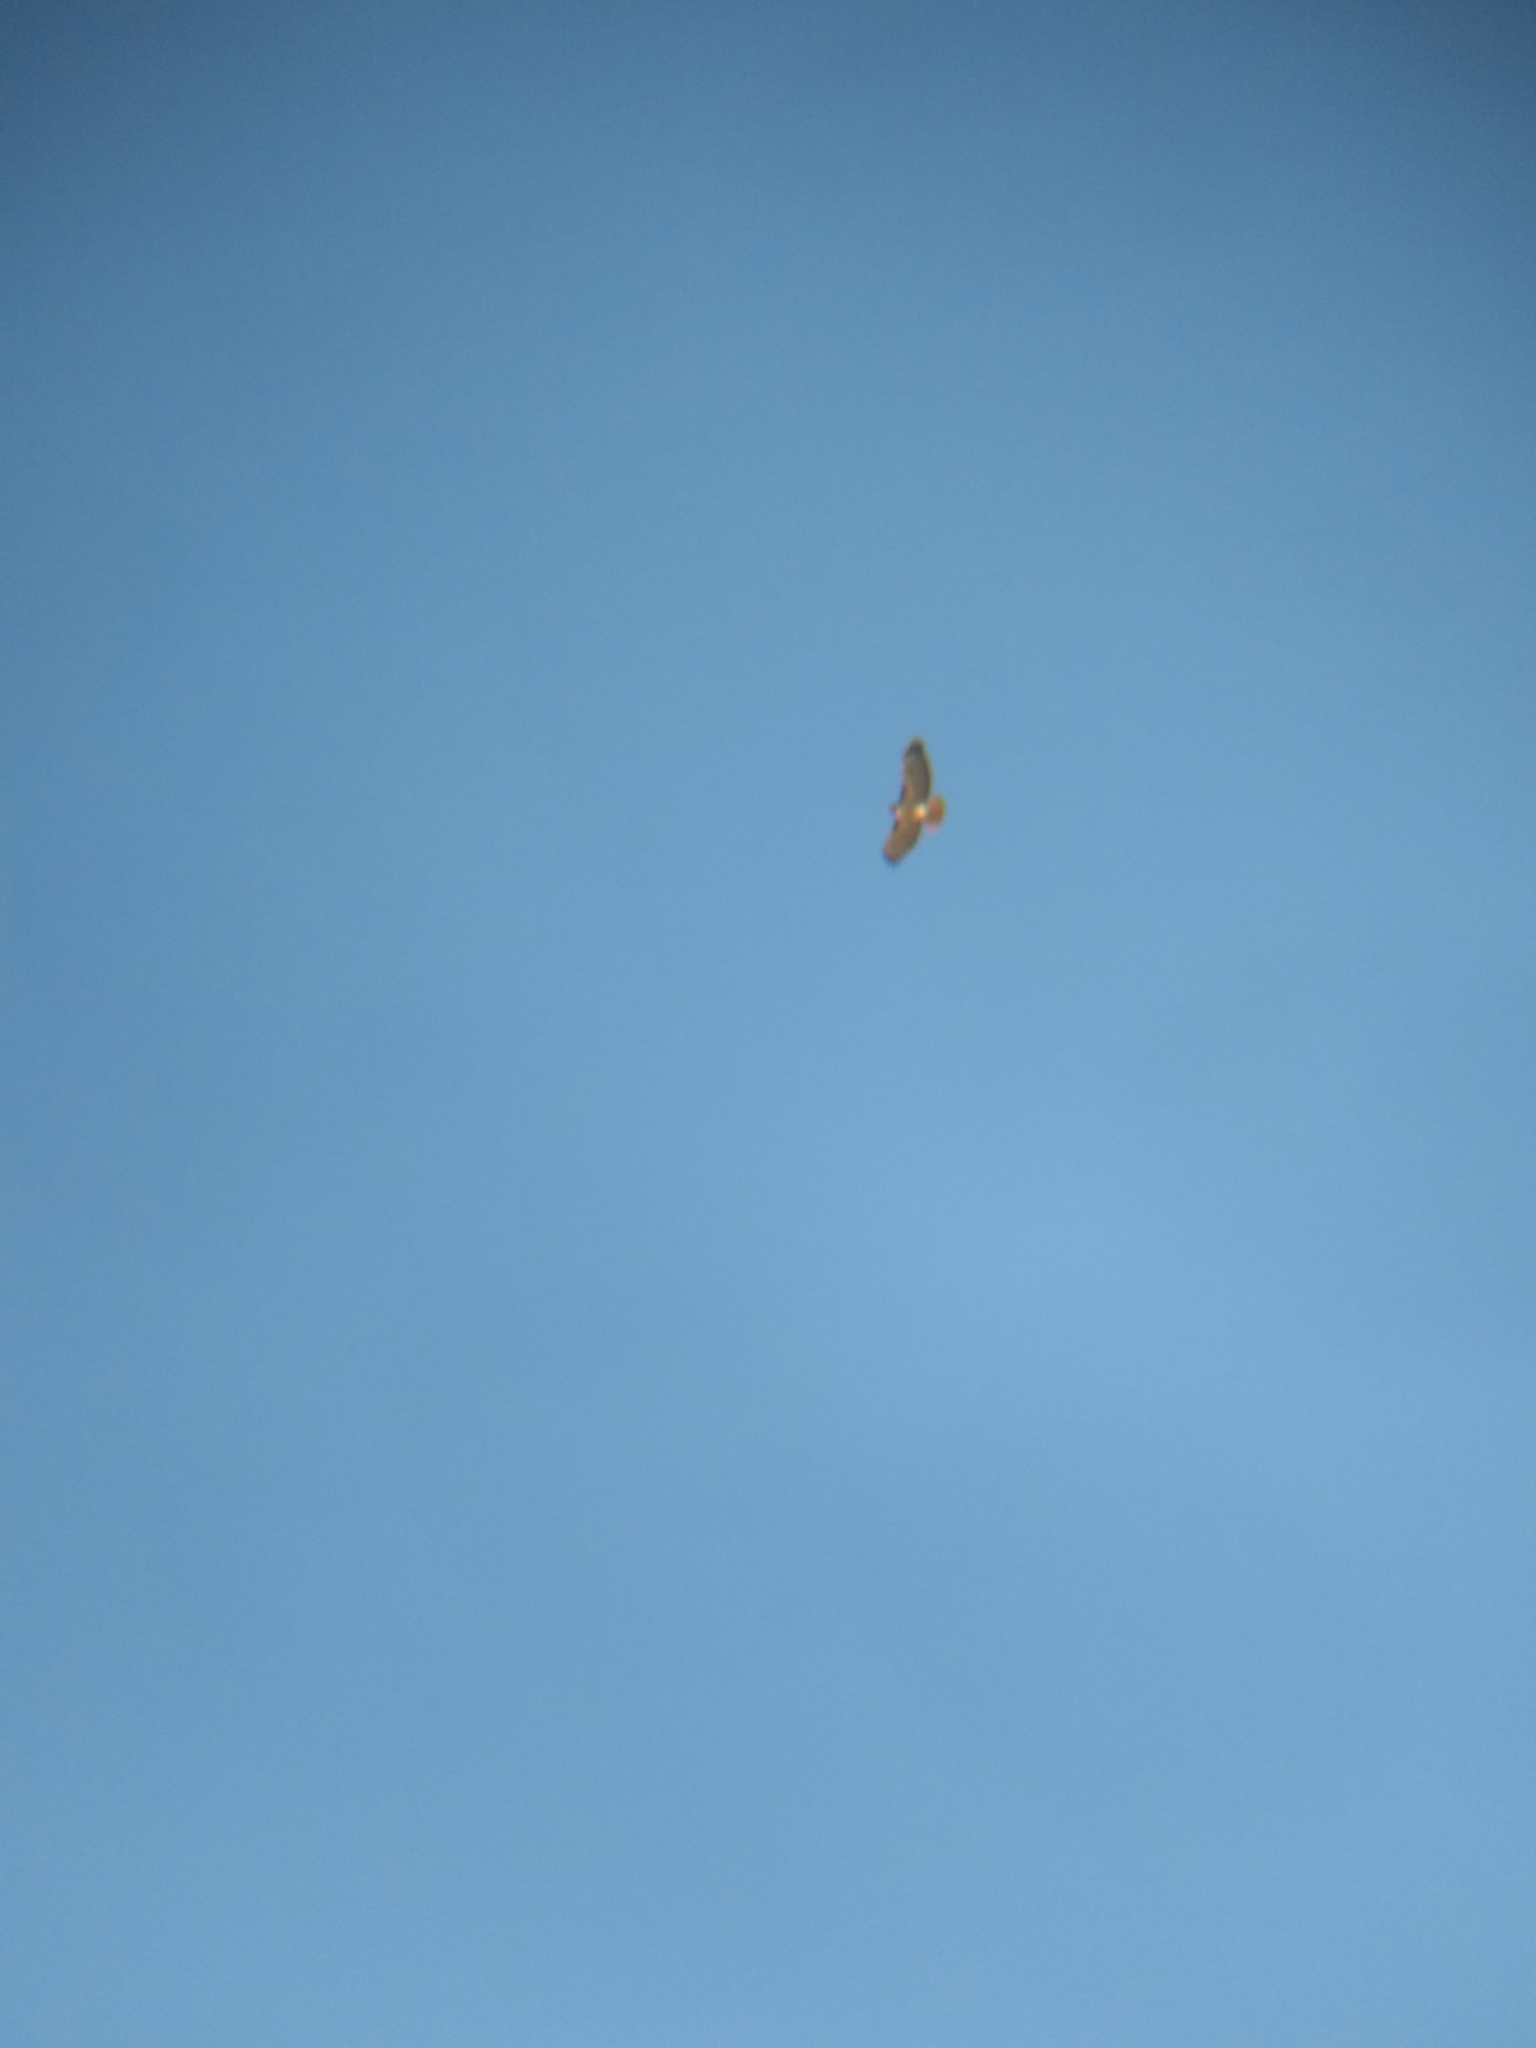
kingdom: Animalia
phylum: Chordata
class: Aves
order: Accipitriformes
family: Accipitridae
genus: Buteo
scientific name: Buteo jamaicensis
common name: Red-tailed hawk
